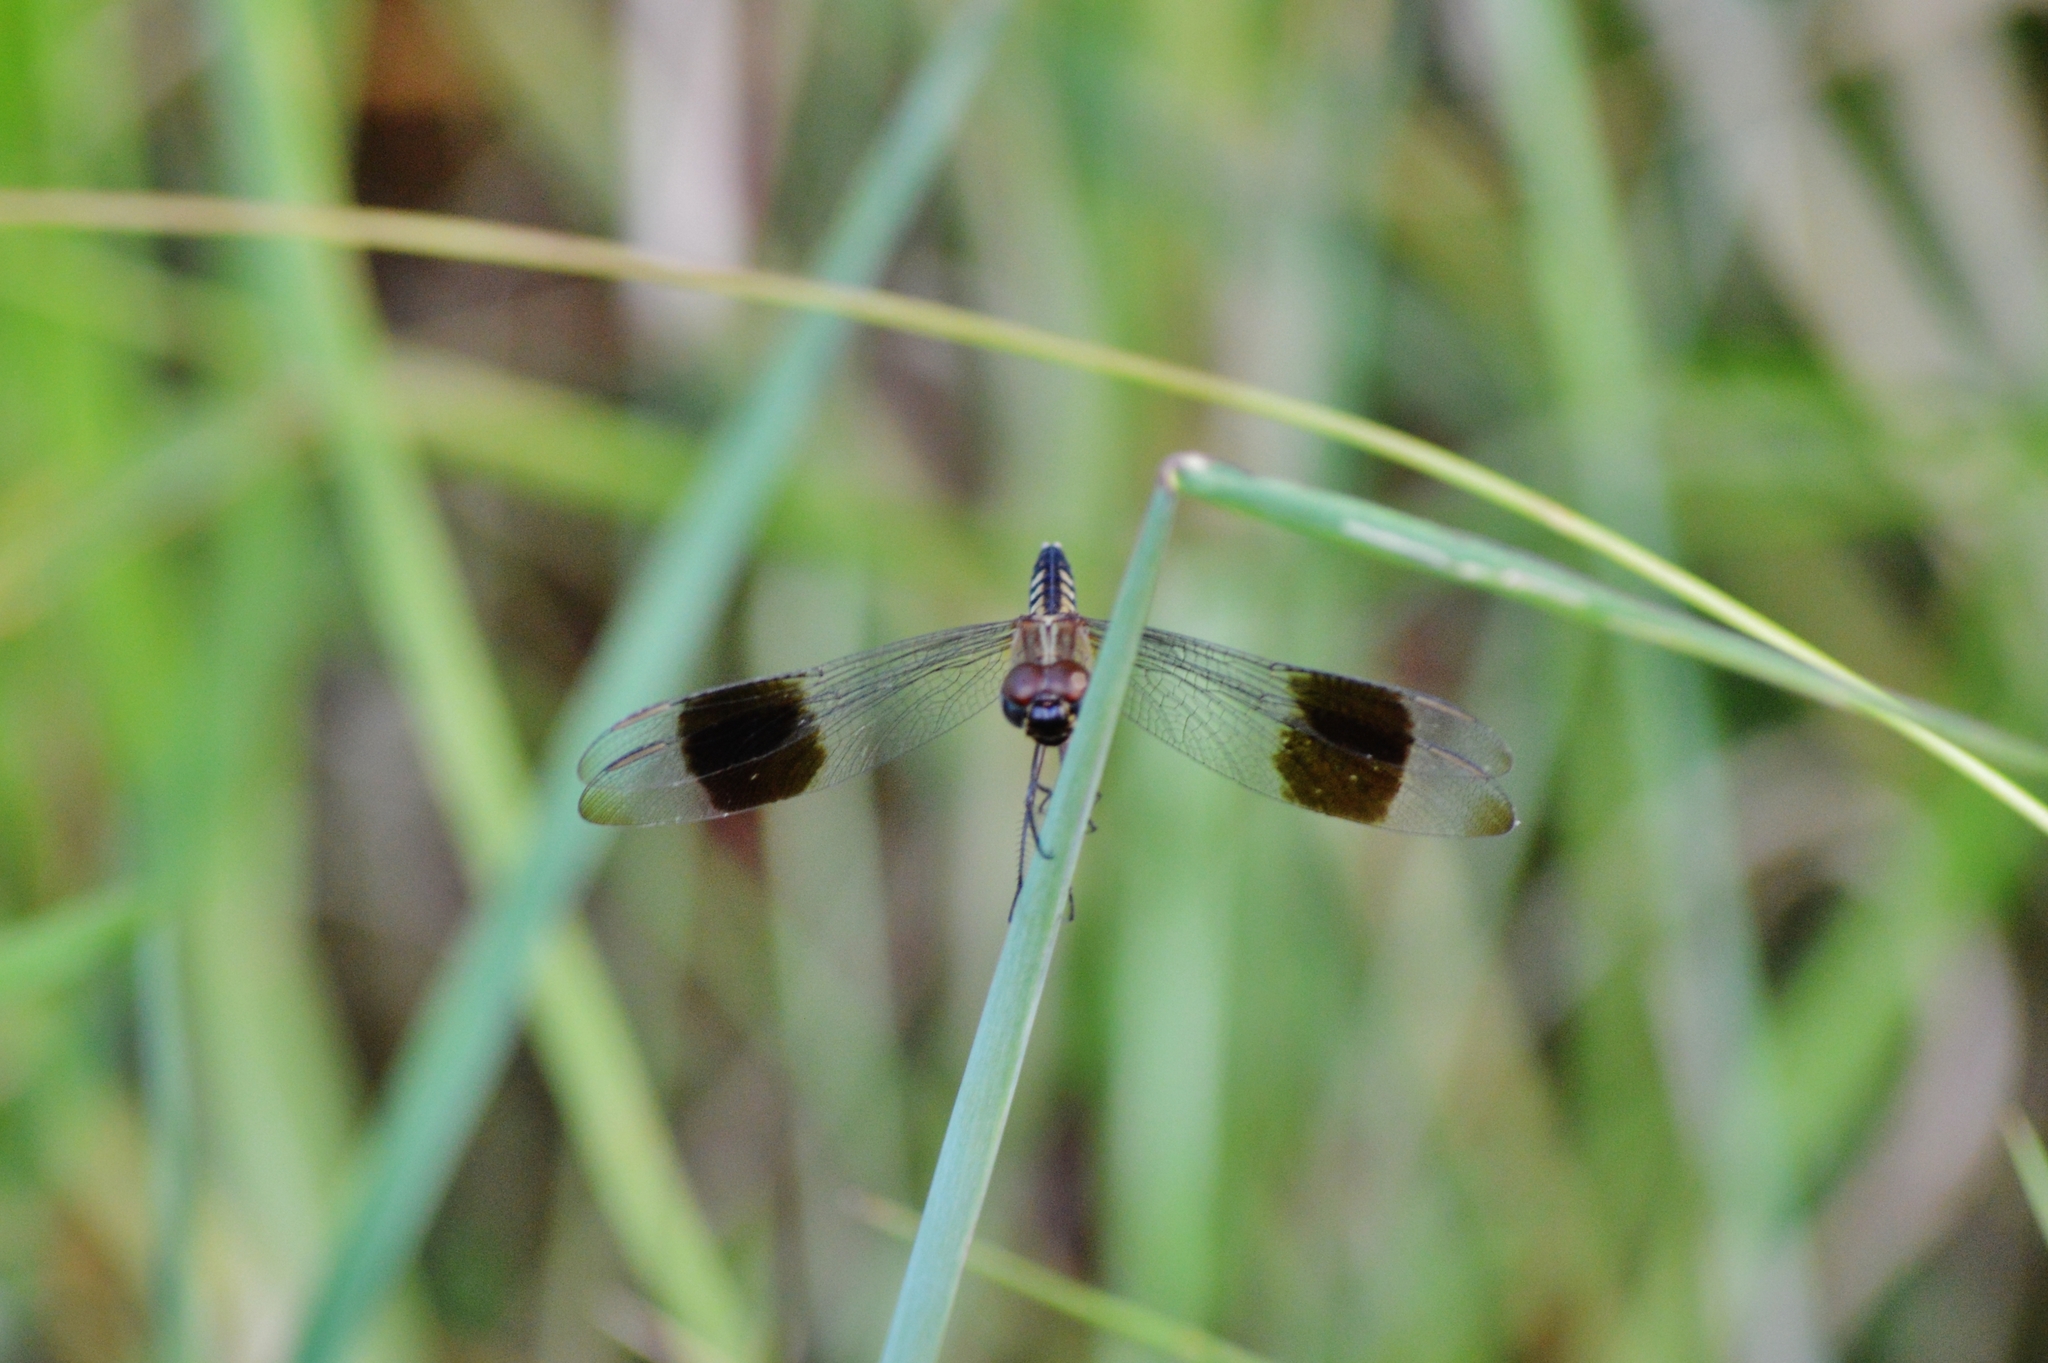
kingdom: Animalia
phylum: Arthropoda
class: Insecta
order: Odonata
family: Libellulidae
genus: Erythrodiplax
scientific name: Erythrodiplax umbrata
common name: Band-winged dragonlet
